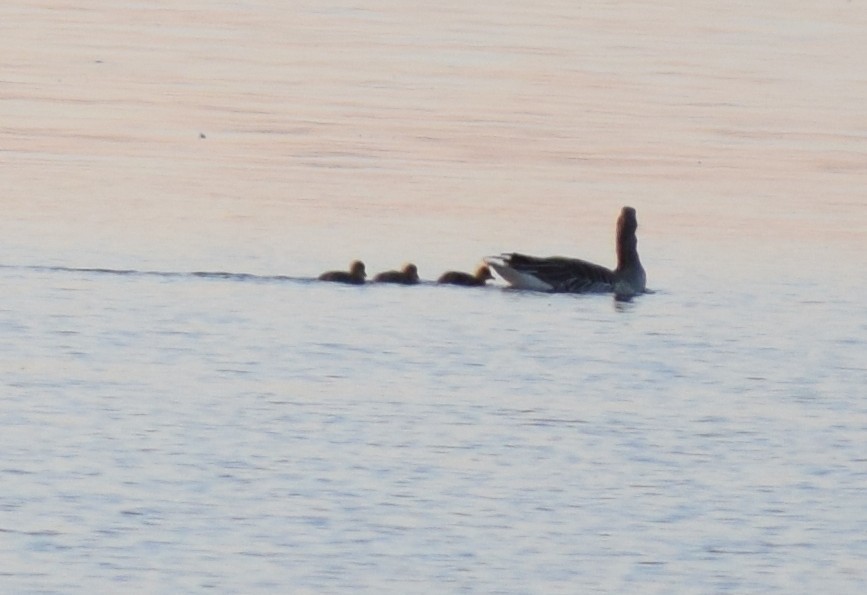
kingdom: Animalia
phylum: Chordata
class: Aves
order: Anseriformes
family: Anatidae
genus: Anser
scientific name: Anser anser
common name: Greylag goose
